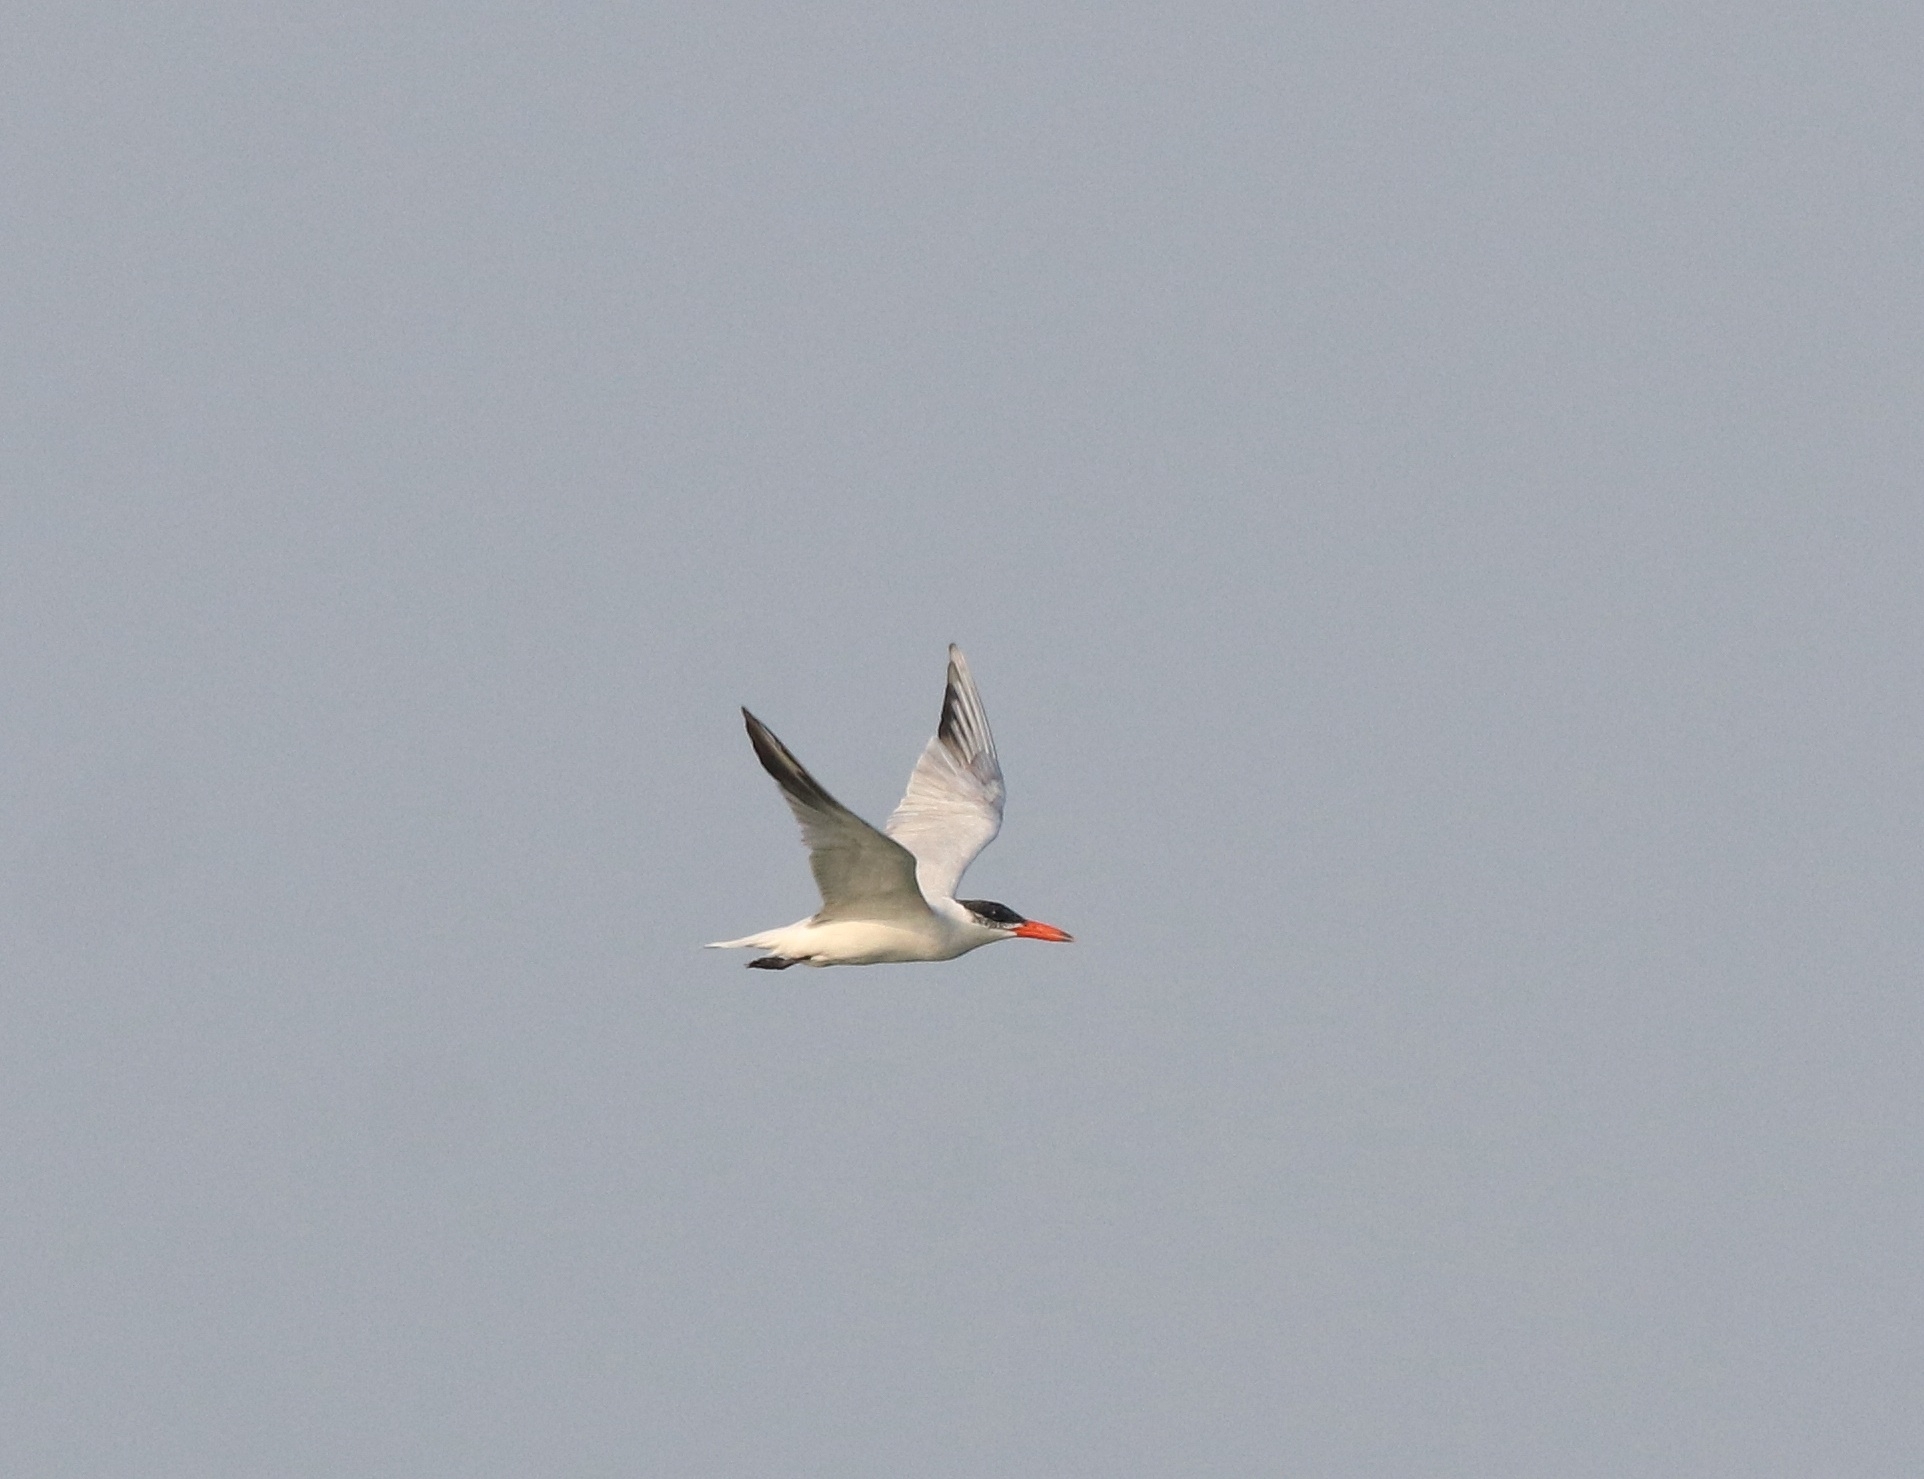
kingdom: Animalia
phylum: Chordata
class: Aves
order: Charadriiformes
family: Laridae
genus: Hydroprogne
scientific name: Hydroprogne caspia
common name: Caspian tern
